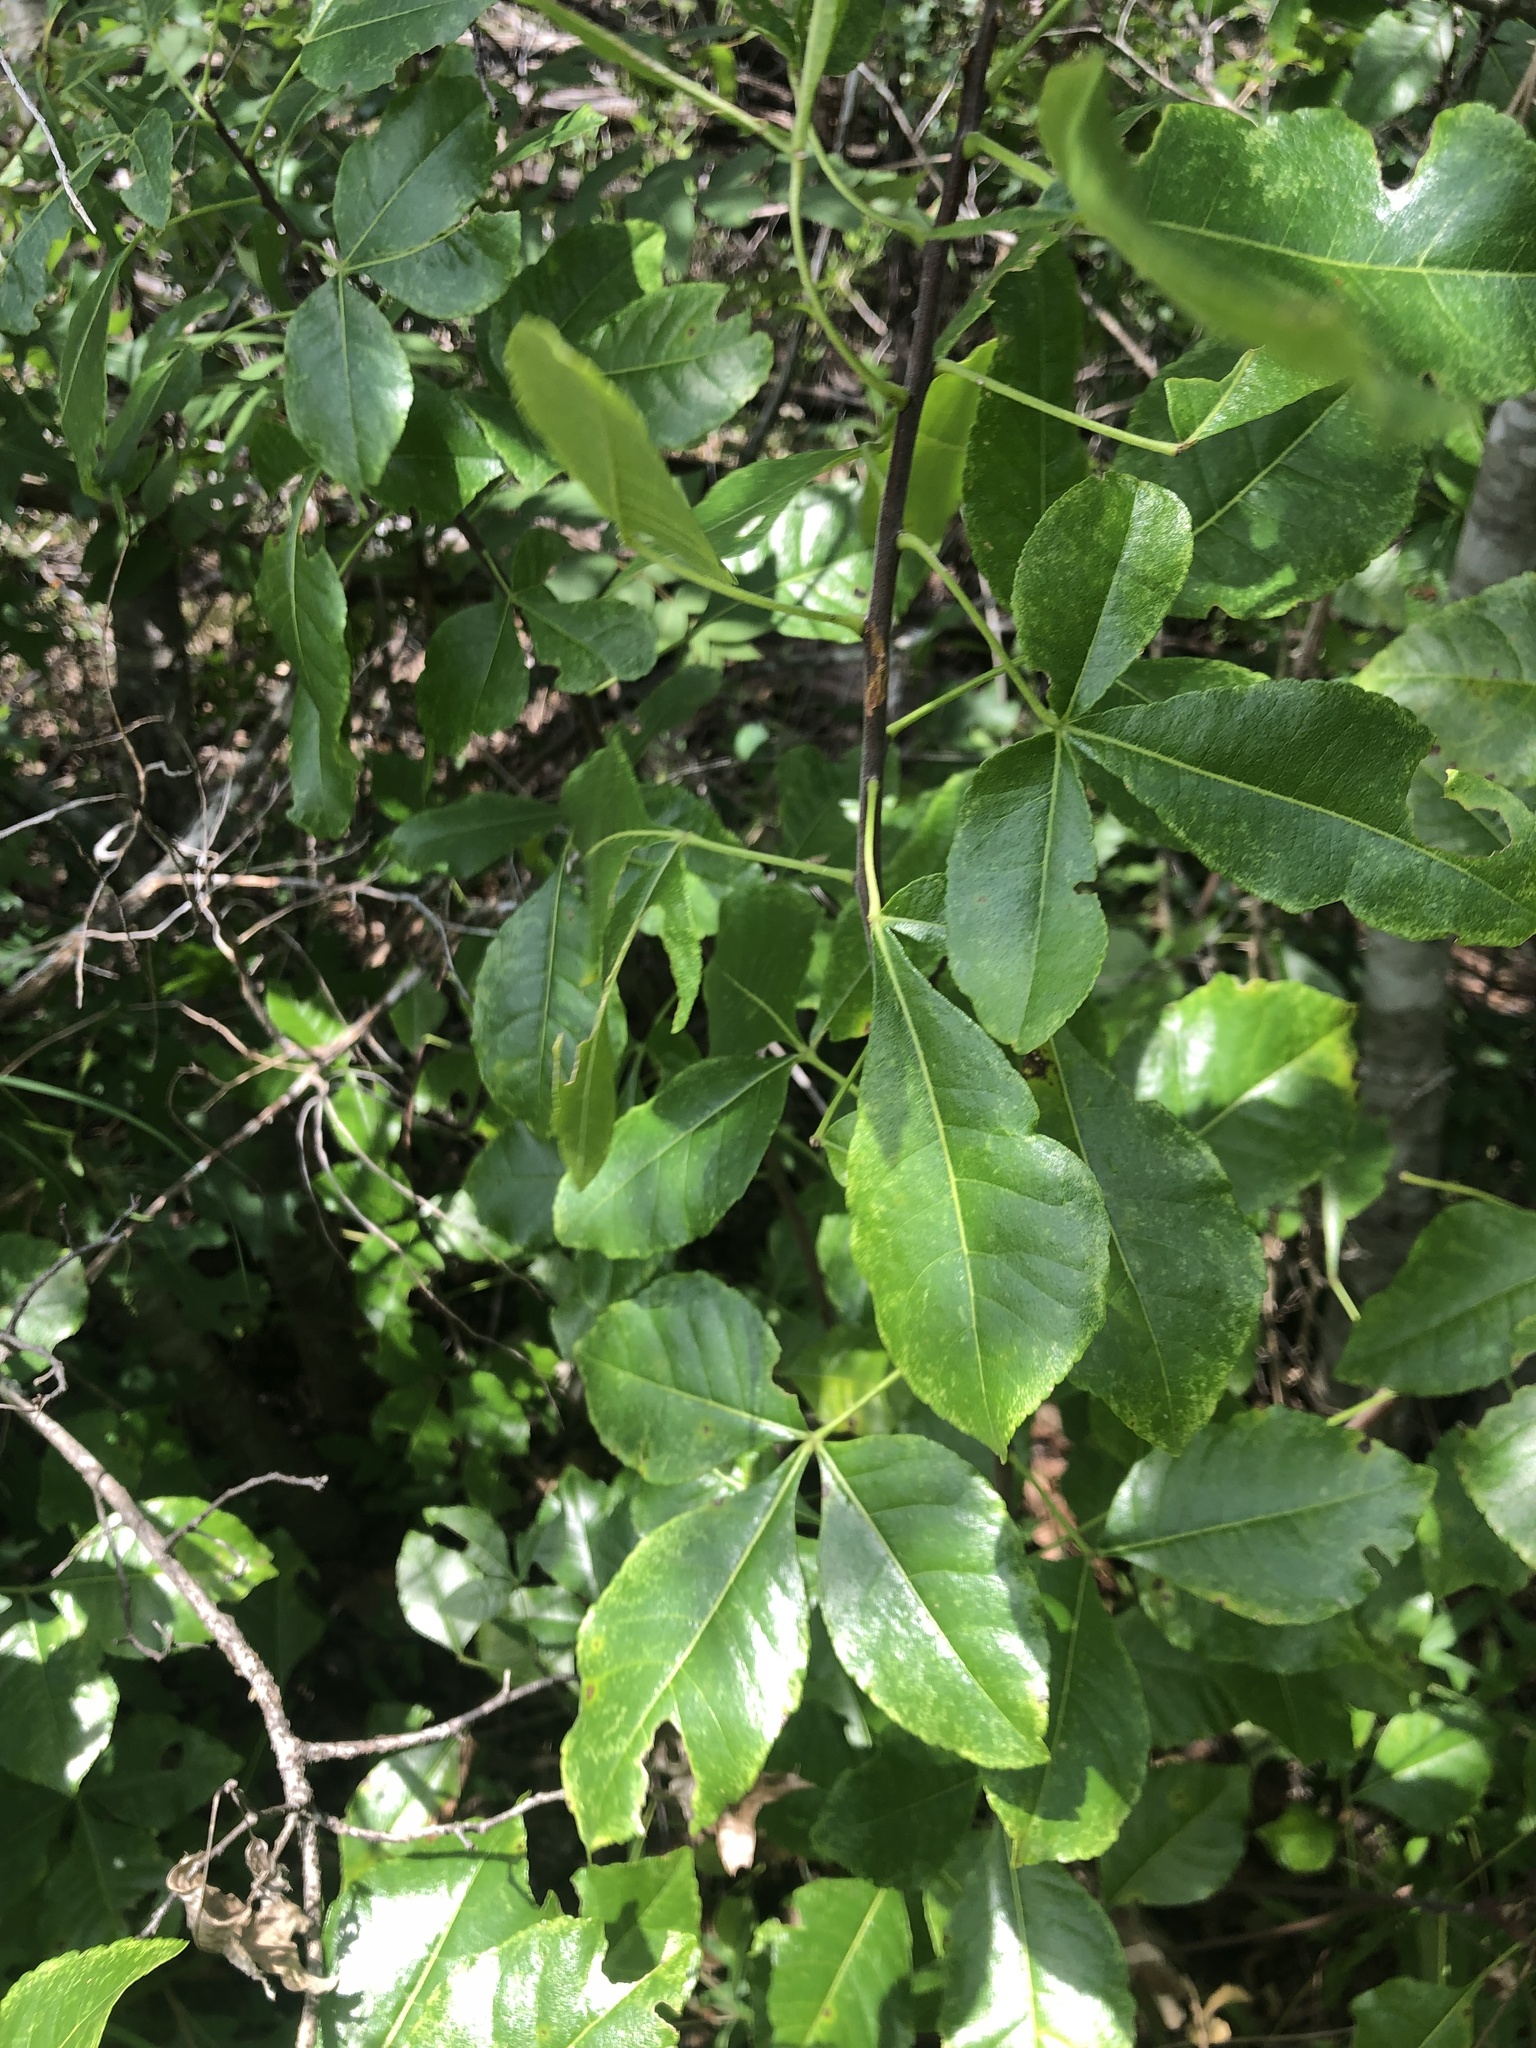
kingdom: Plantae
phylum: Tracheophyta
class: Magnoliopsida
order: Sapindales
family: Rutaceae
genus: Ptelea
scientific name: Ptelea trifoliata
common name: Common hop-tree
